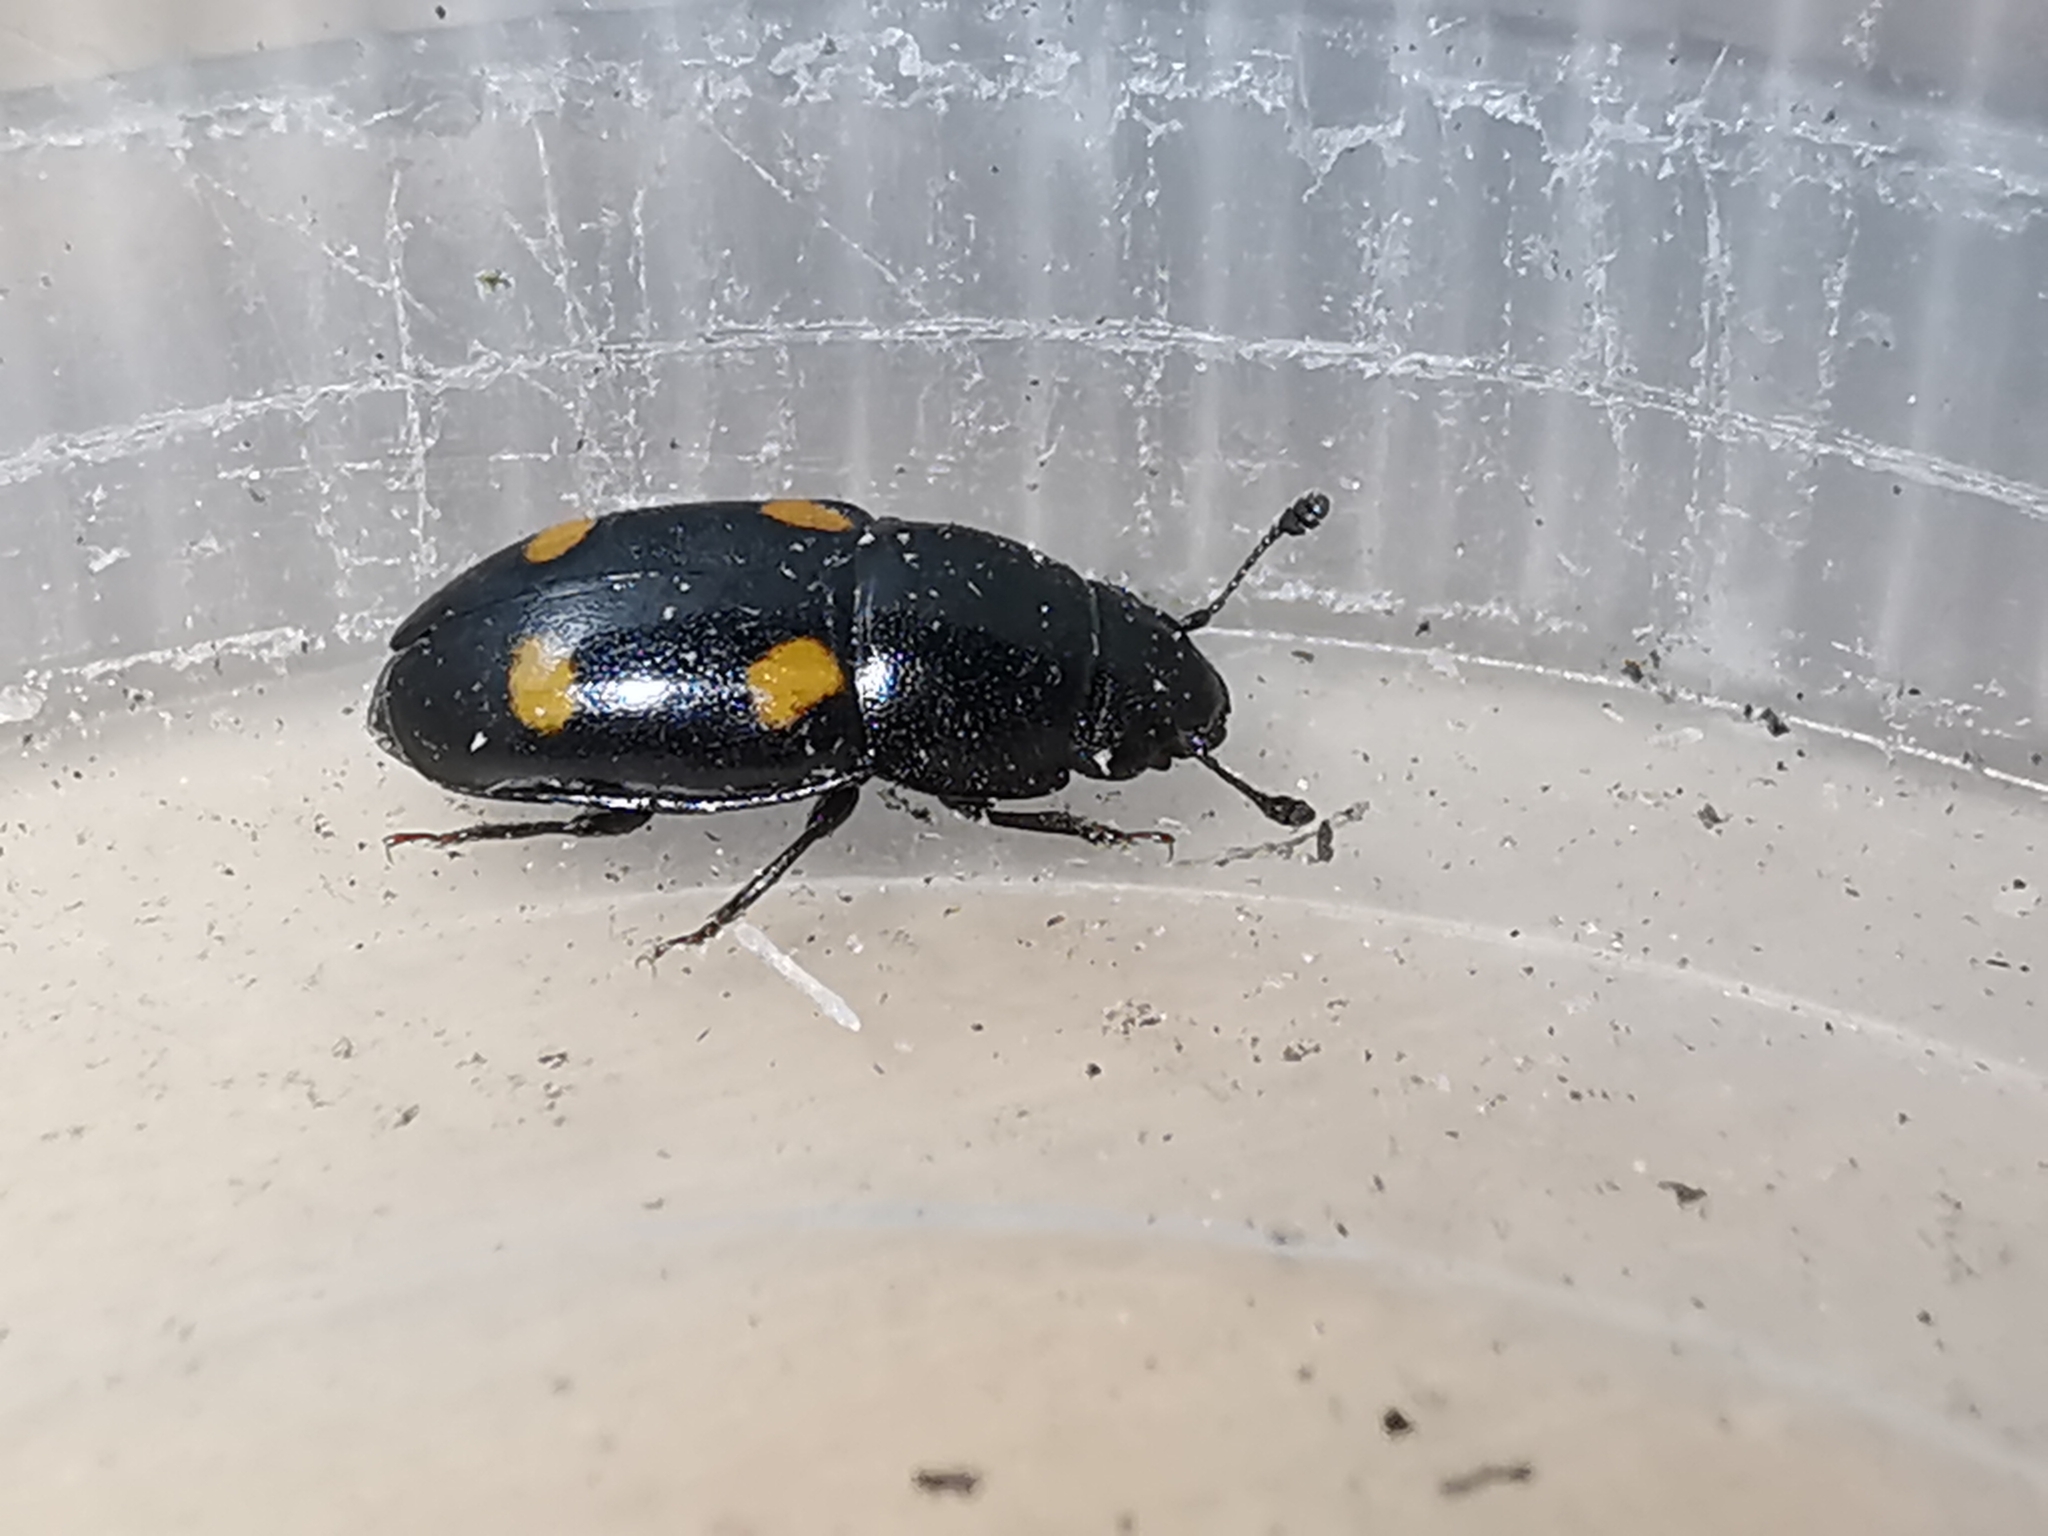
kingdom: Animalia
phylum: Arthropoda
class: Insecta
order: Coleoptera
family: Nitidulidae
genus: Glischrochilus
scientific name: Glischrochilus hortensis
